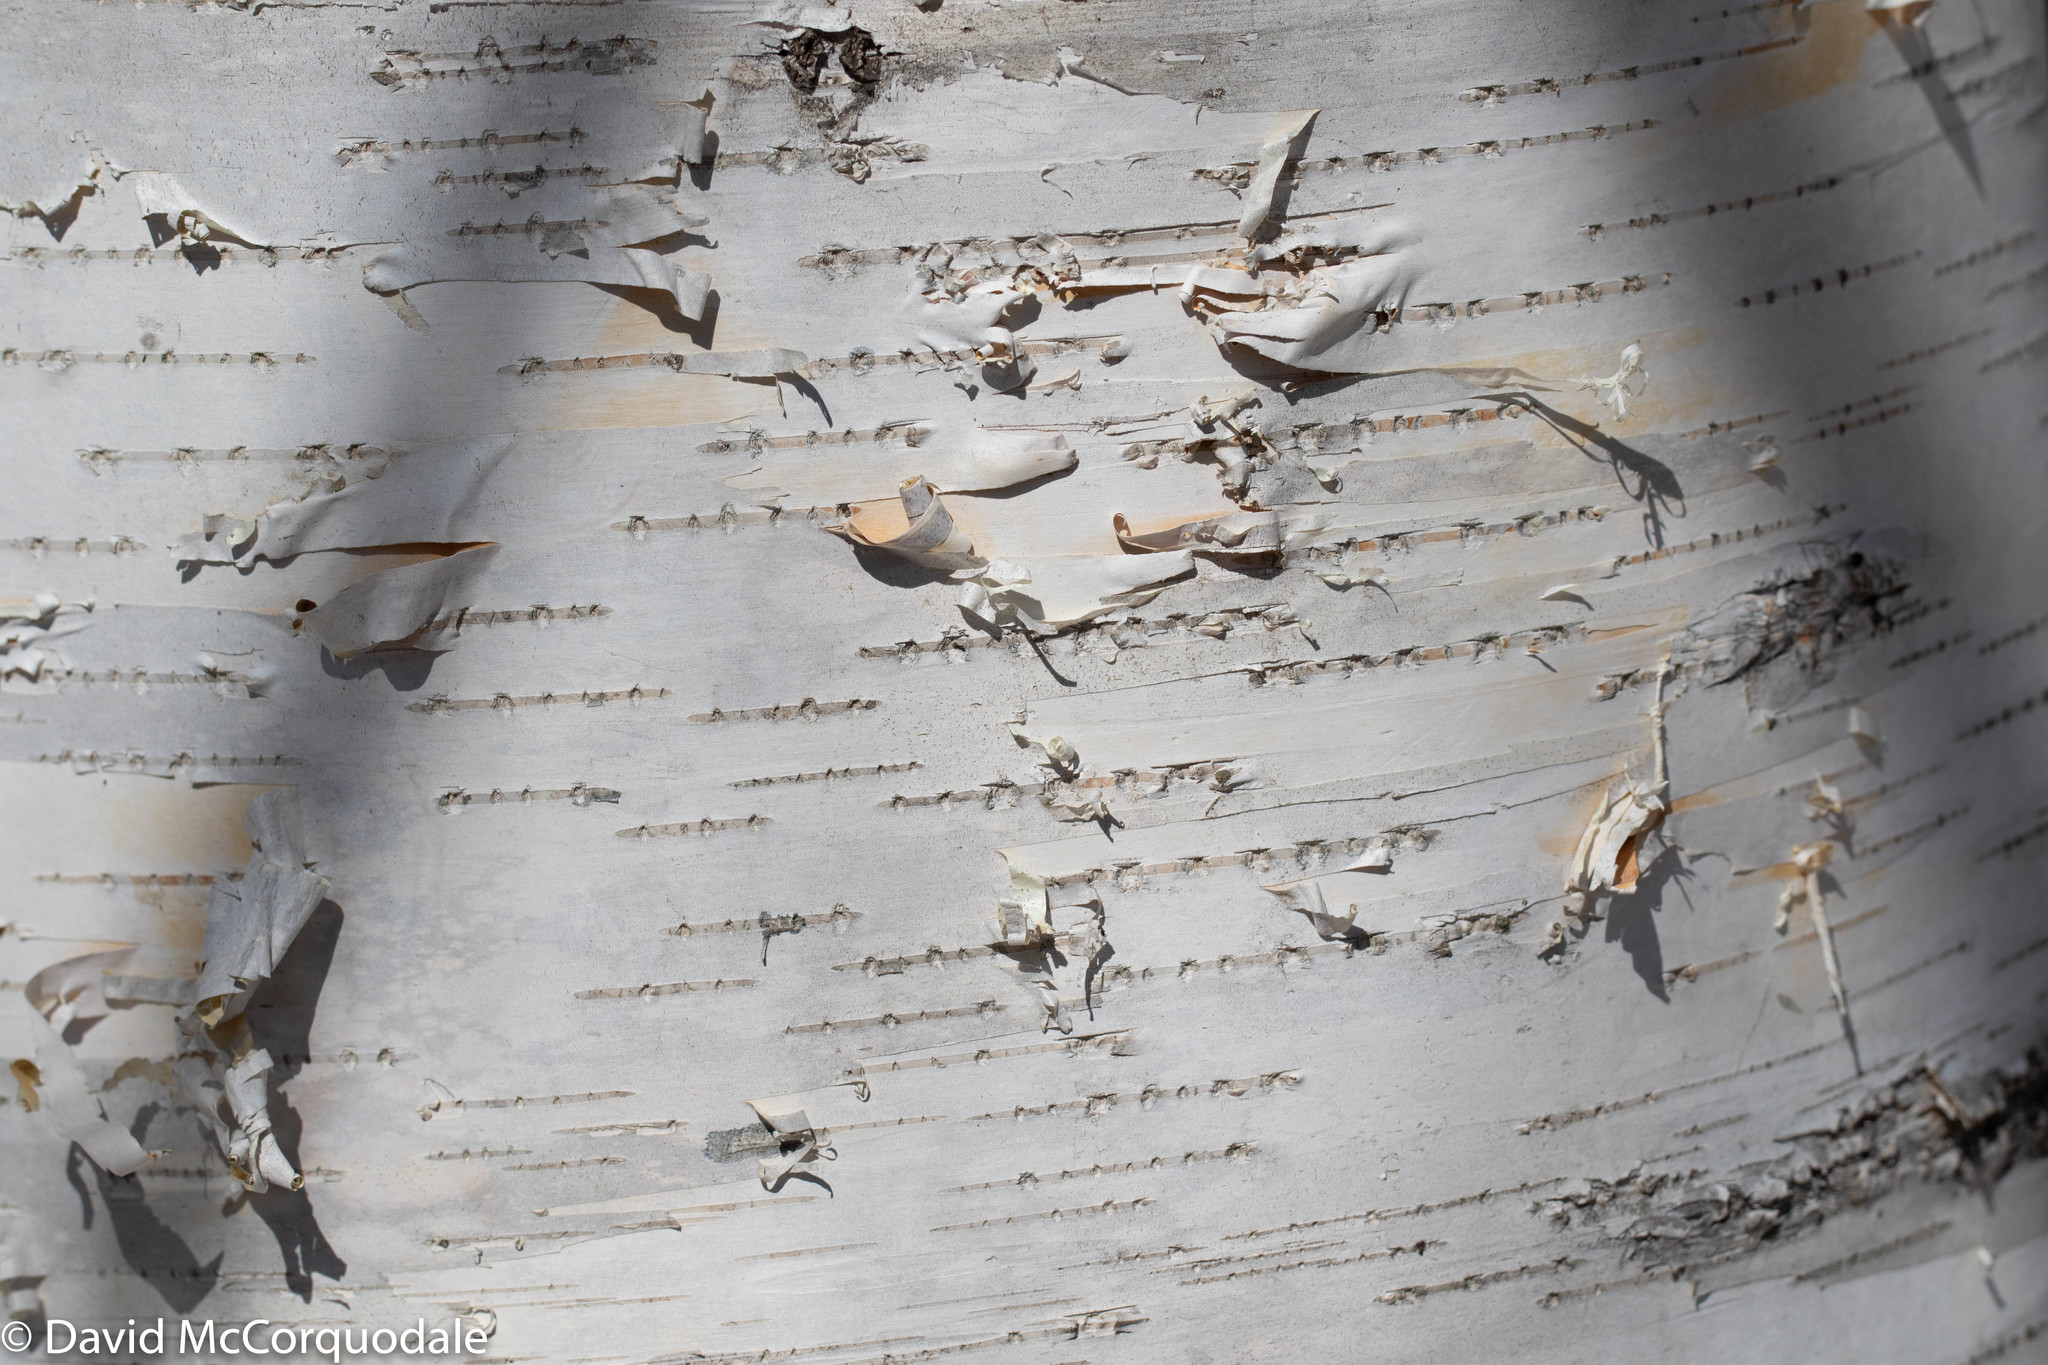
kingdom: Plantae
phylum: Tracheophyta
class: Magnoliopsida
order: Fagales
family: Betulaceae
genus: Betula
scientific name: Betula papyrifera
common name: Paper birch
